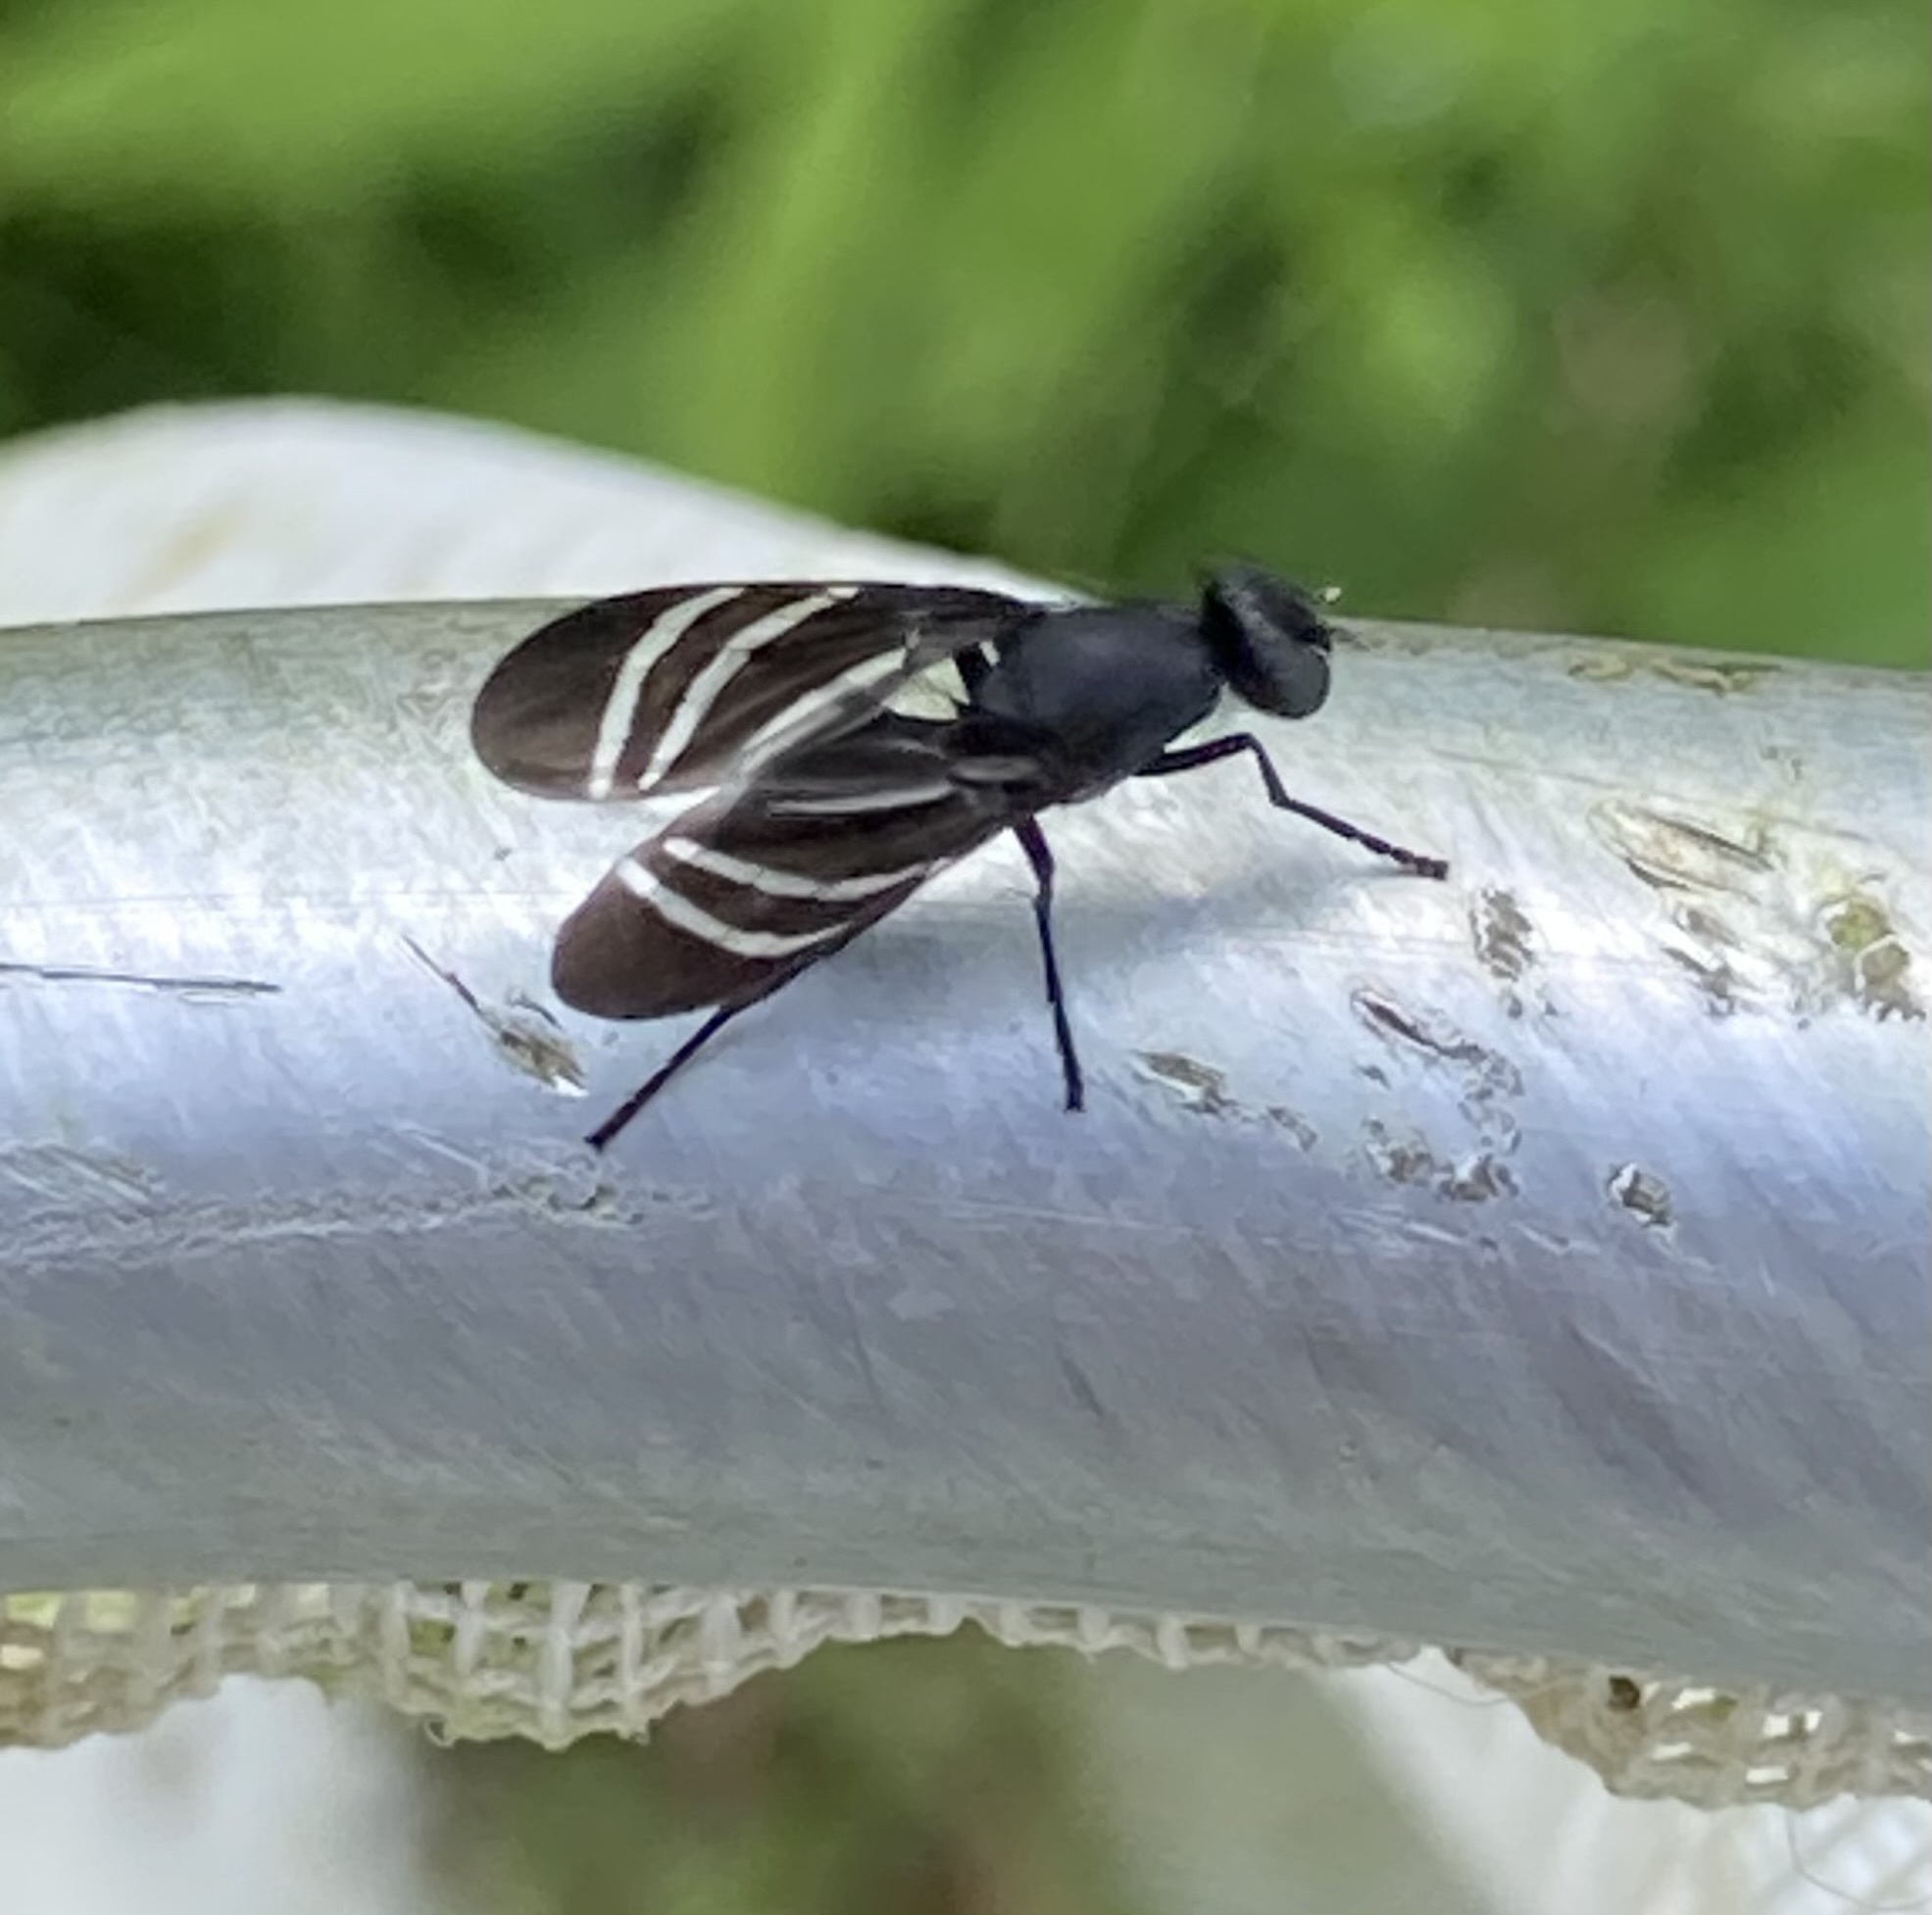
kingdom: Animalia
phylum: Arthropoda
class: Insecta
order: Diptera
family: Ulidiidae
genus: Tritoxa
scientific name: Tritoxa flexa
